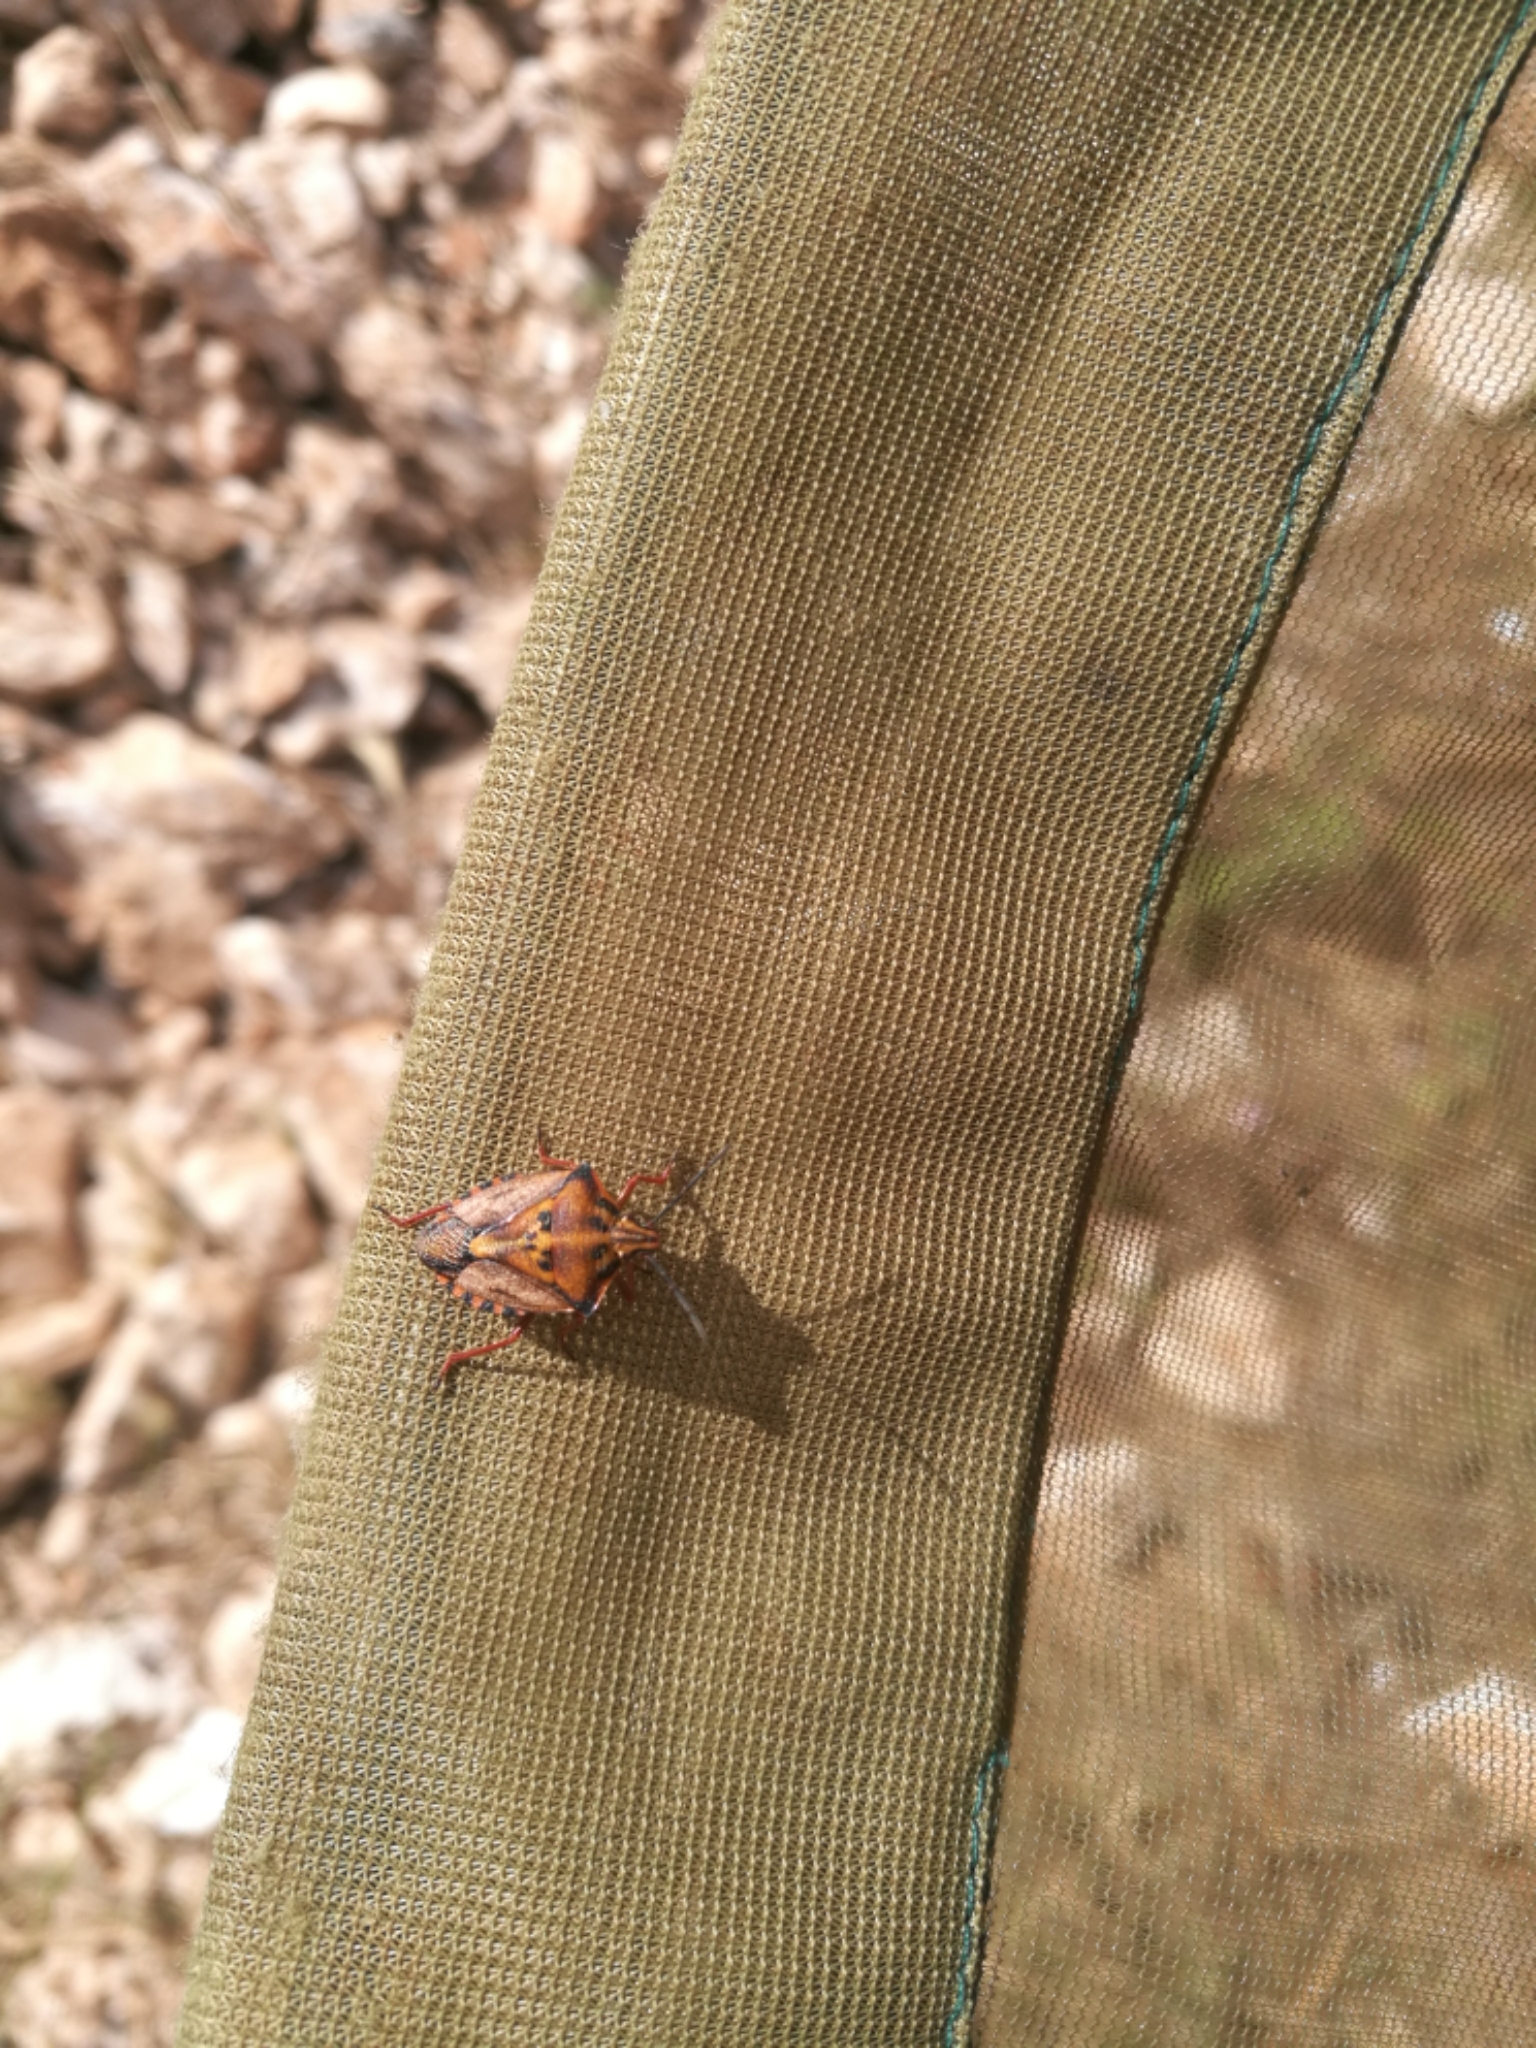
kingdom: Animalia
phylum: Arthropoda
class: Insecta
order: Hemiptera
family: Pentatomidae
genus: Carpocoris
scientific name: Carpocoris mediterraneus
